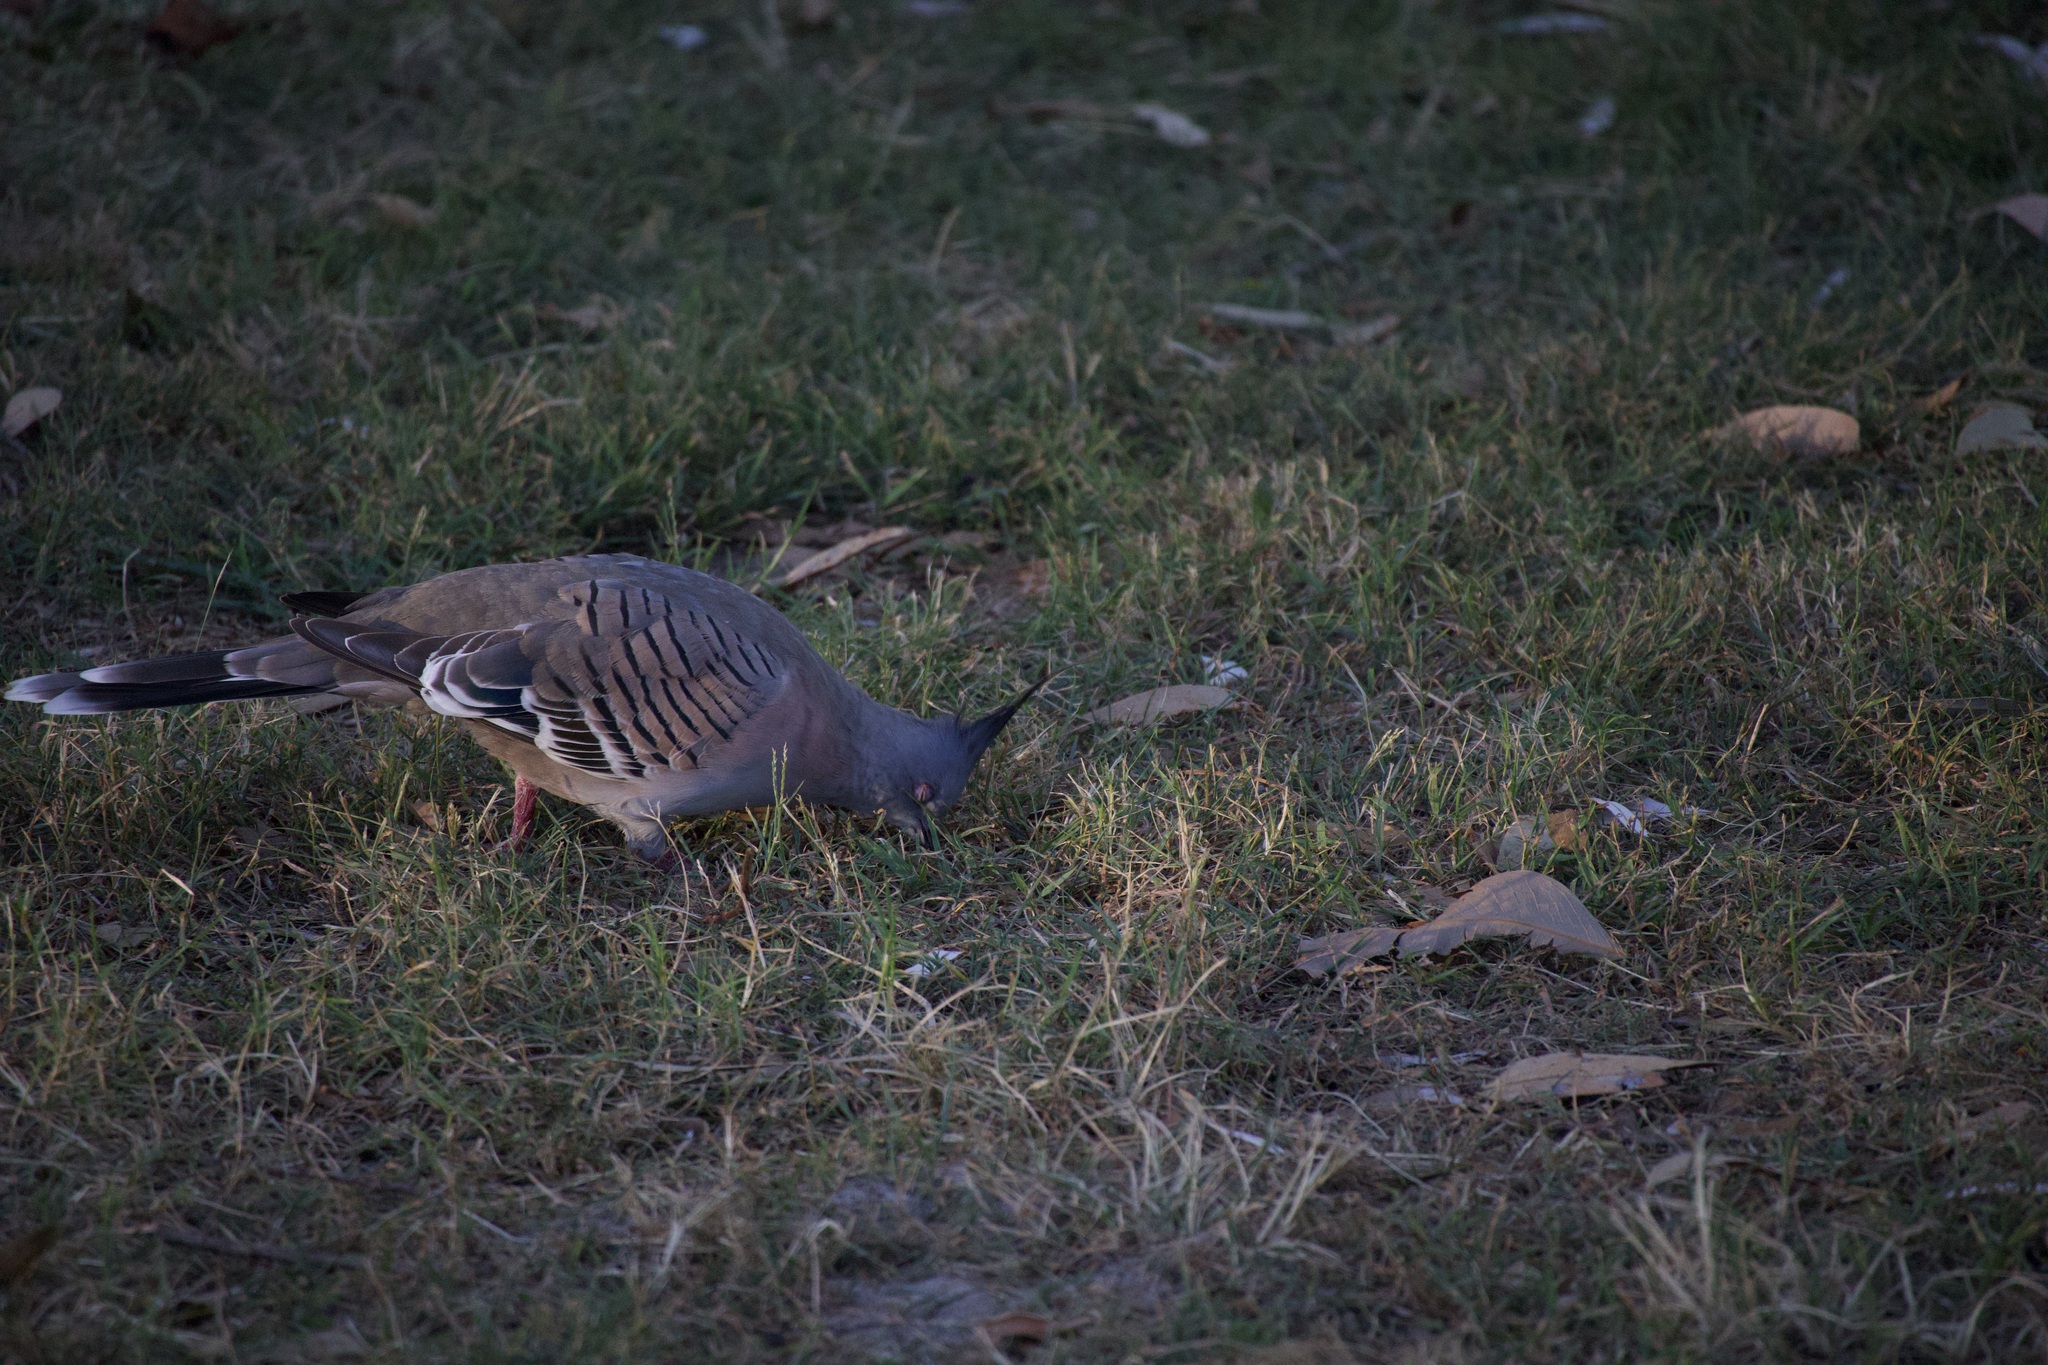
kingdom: Animalia
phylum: Chordata
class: Aves
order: Columbiformes
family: Columbidae
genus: Ocyphaps
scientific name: Ocyphaps lophotes
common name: Crested pigeon
